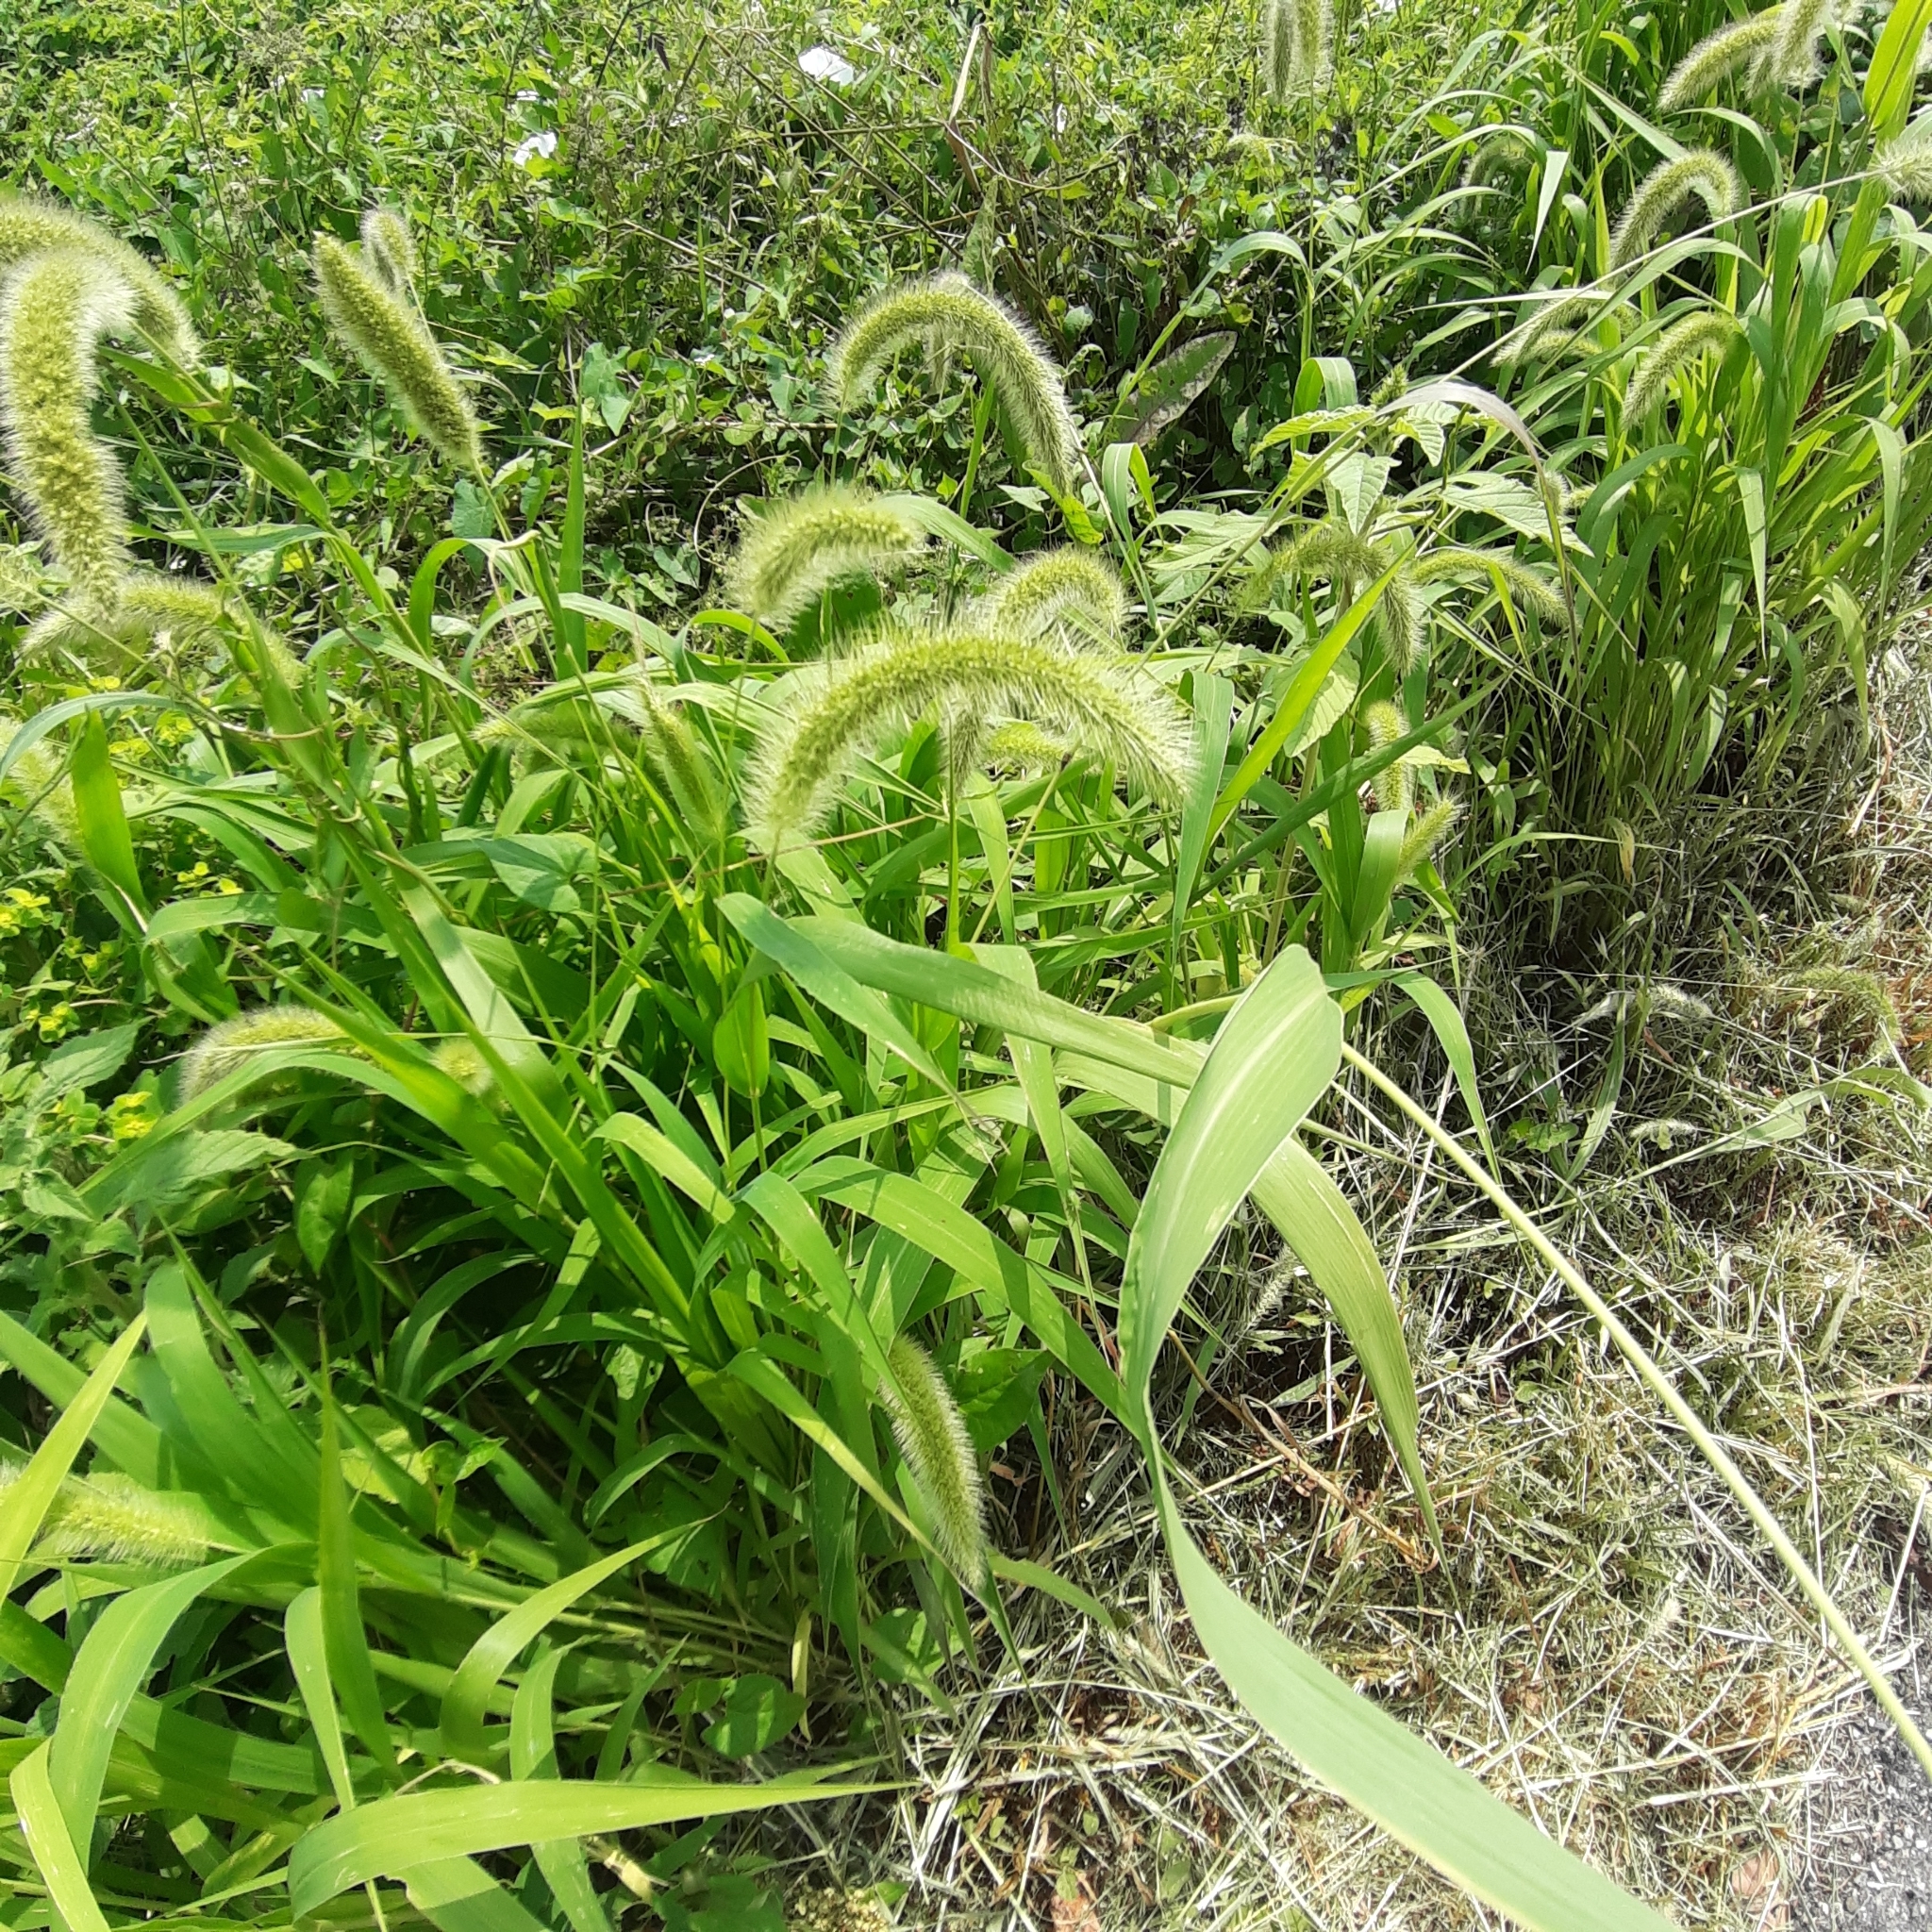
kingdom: Plantae
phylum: Tracheophyta
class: Liliopsida
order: Poales
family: Poaceae
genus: Setaria
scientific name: Setaria viridis
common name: Green bristlegrass
